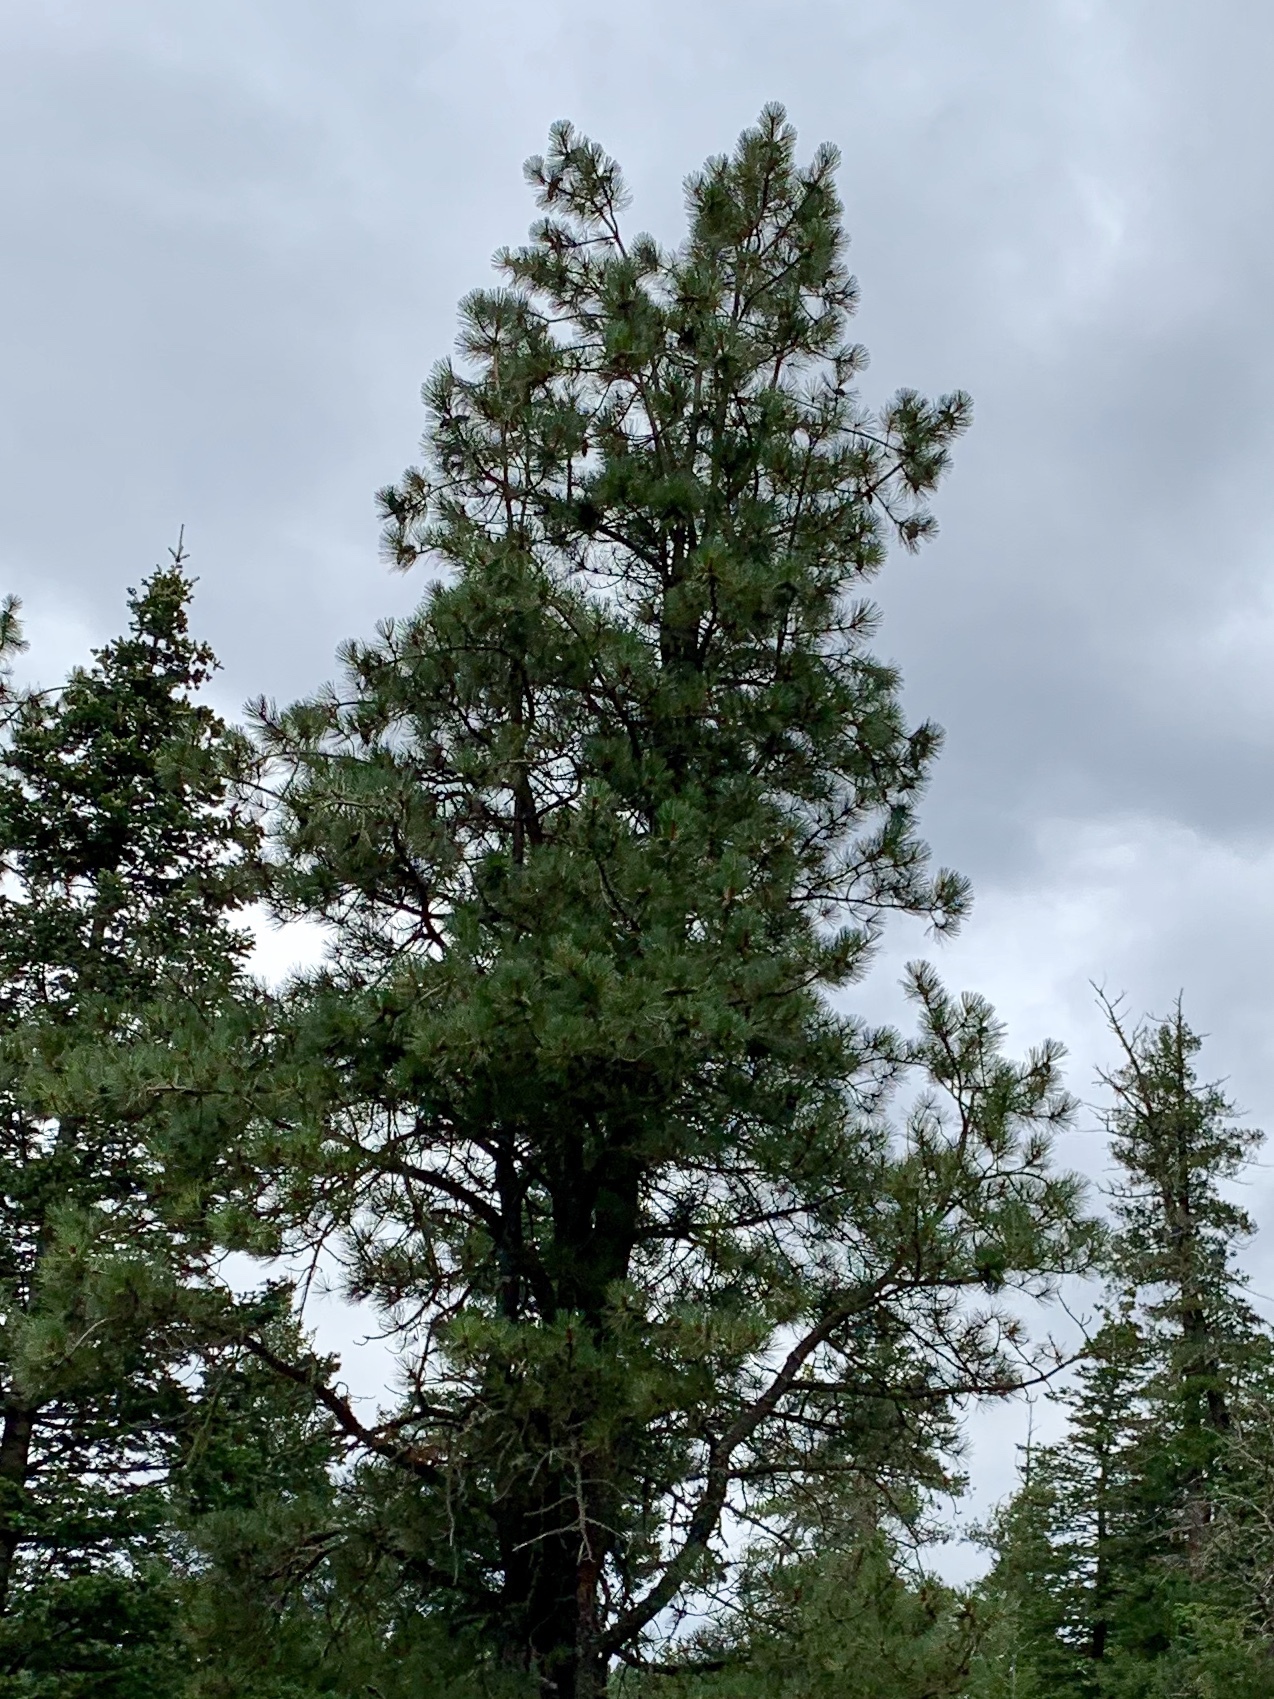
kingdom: Plantae
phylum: Tracheophyta
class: Pinopsida
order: Pinales
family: Pinaceae
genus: Pinus
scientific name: Pinus ponderosa
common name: Western yellow-pine
